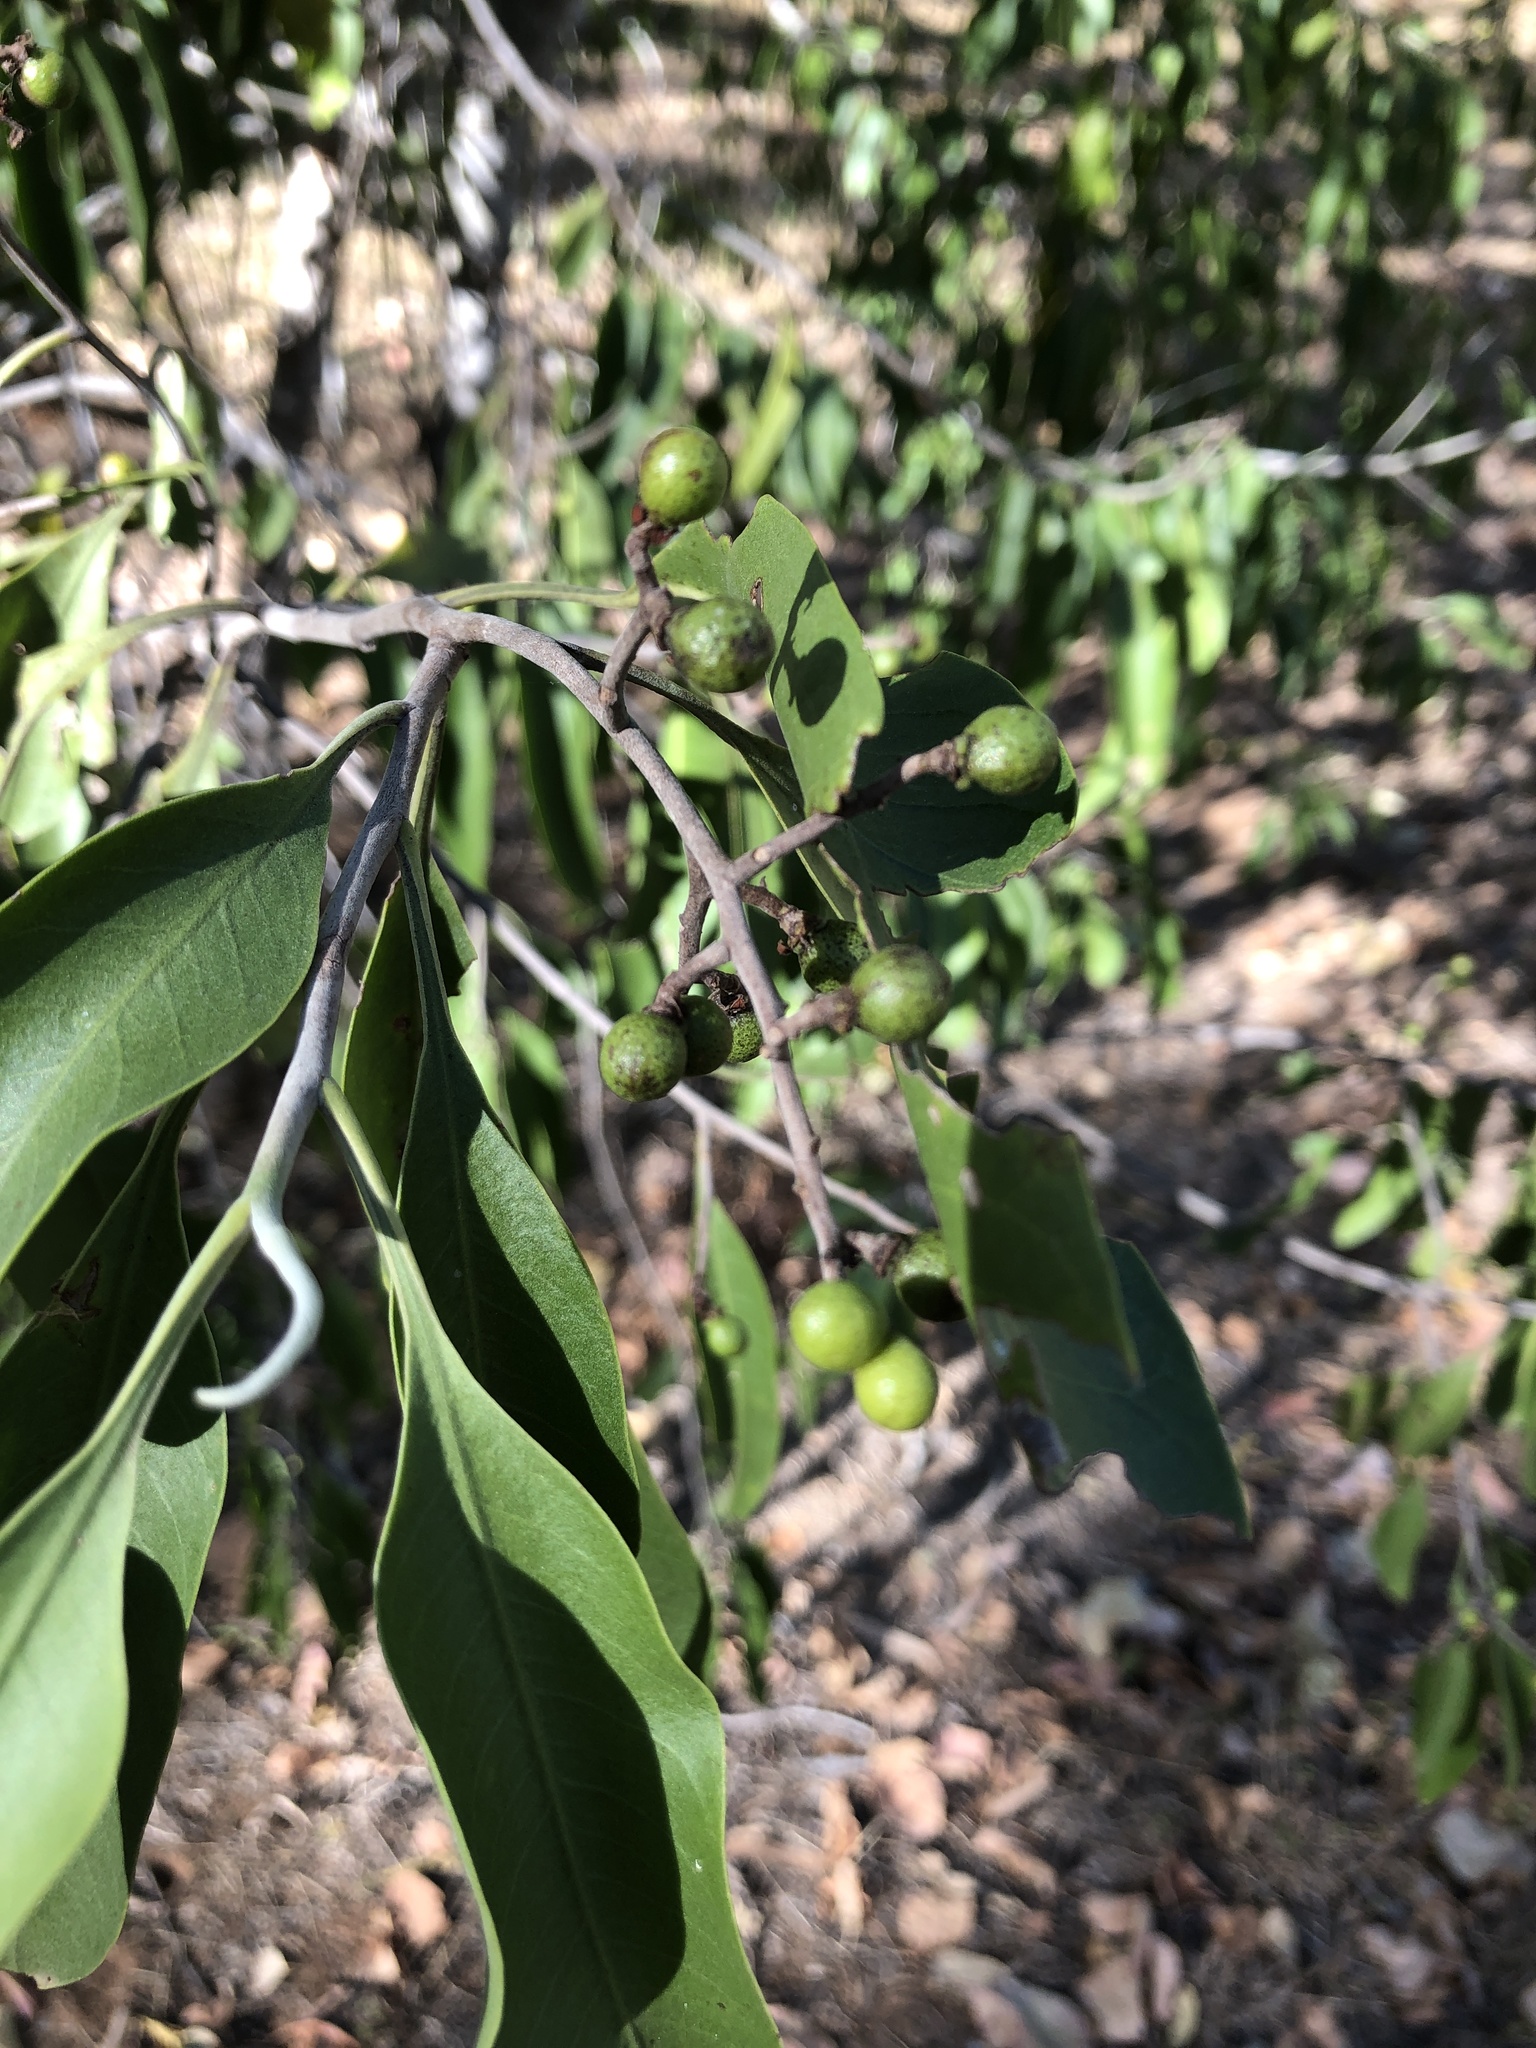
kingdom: Plantae
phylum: Tracheophyta
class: Magnoliopsida
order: Sapindales
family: Rutaceae
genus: Geijera
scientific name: Geijera salicifolia
